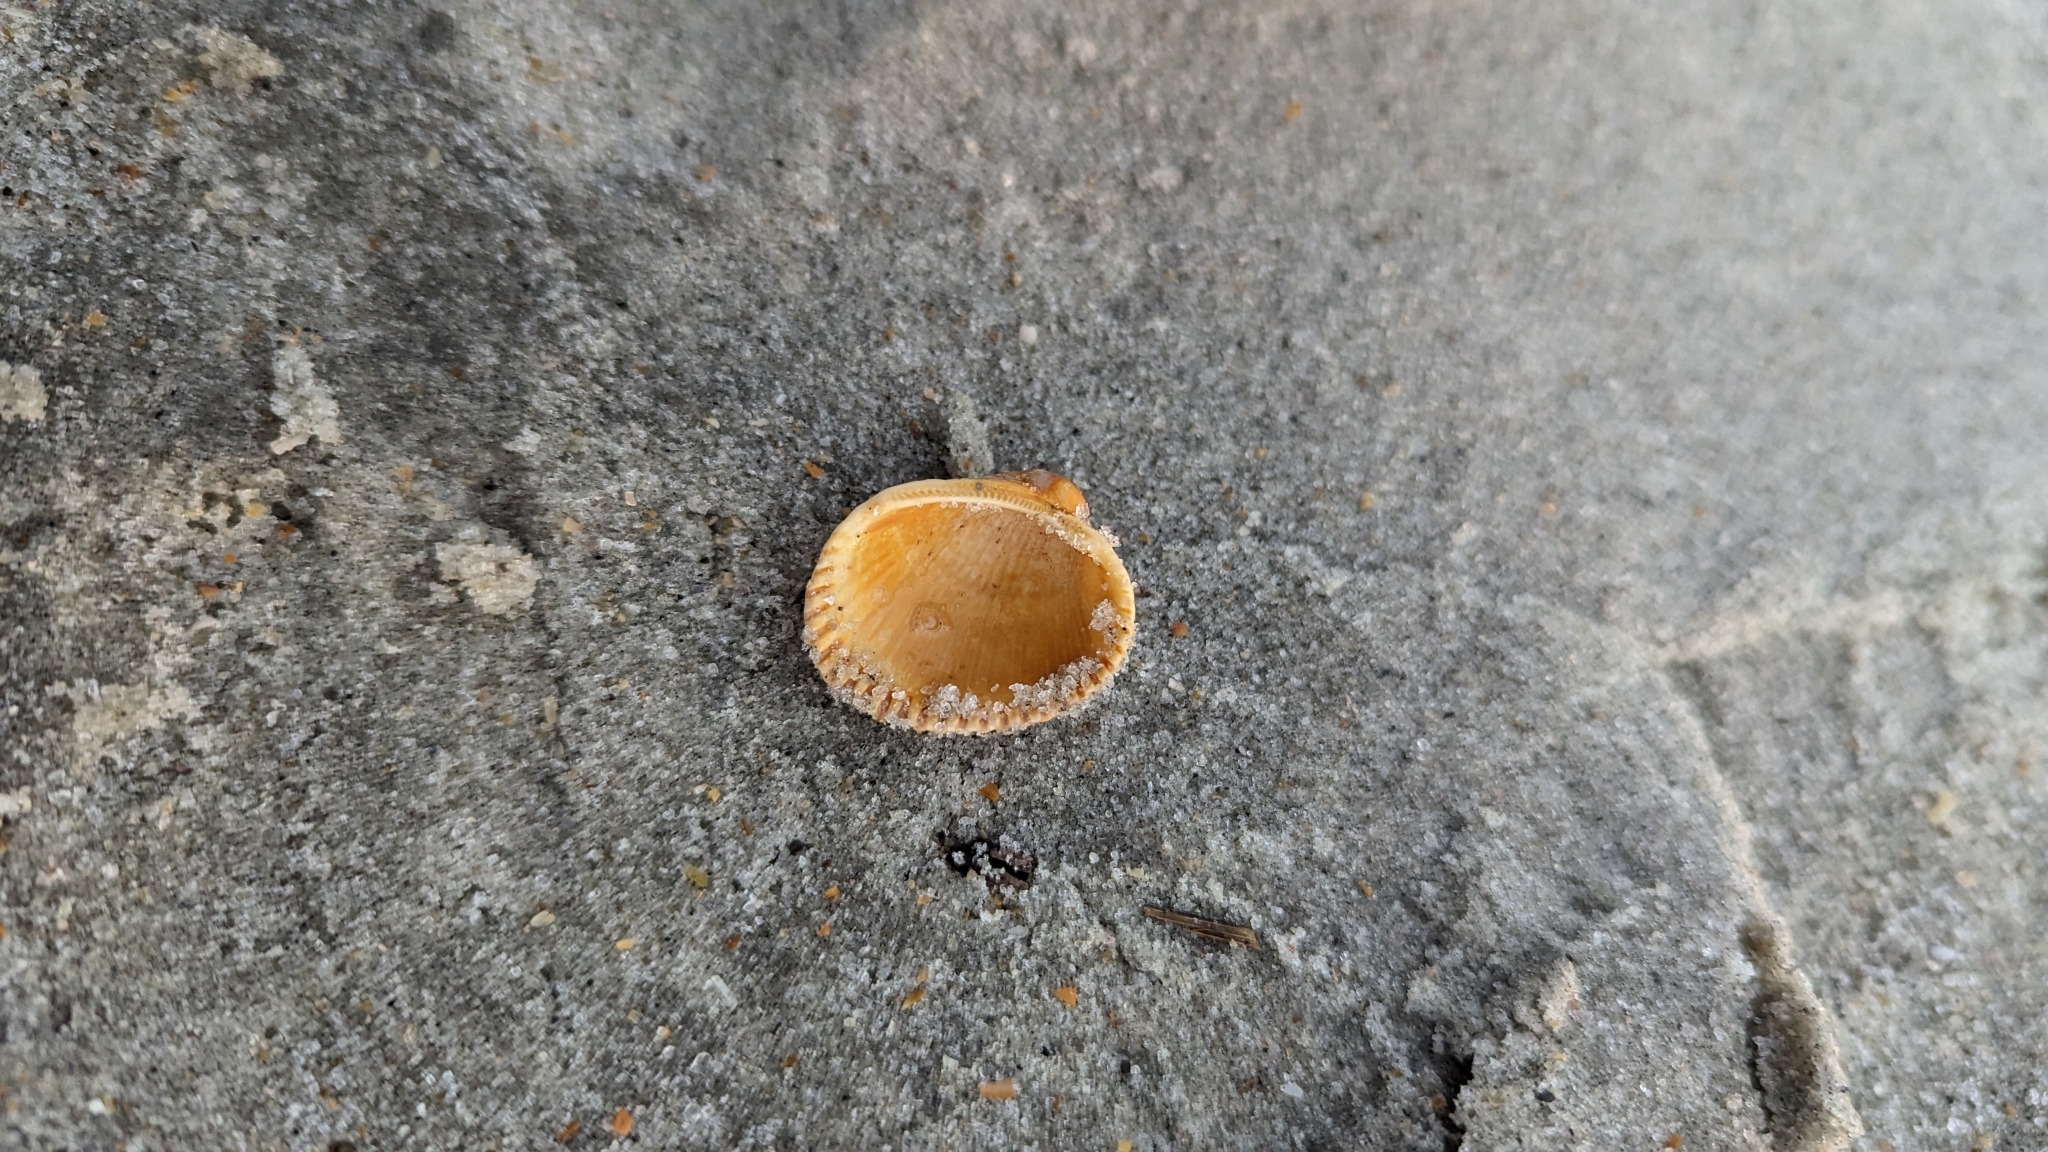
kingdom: Animalia
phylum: Mollusca
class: Bivalvia
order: Arcida
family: Arcidae
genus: Lunarca
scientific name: Lunarca ovalis
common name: Blood ark
